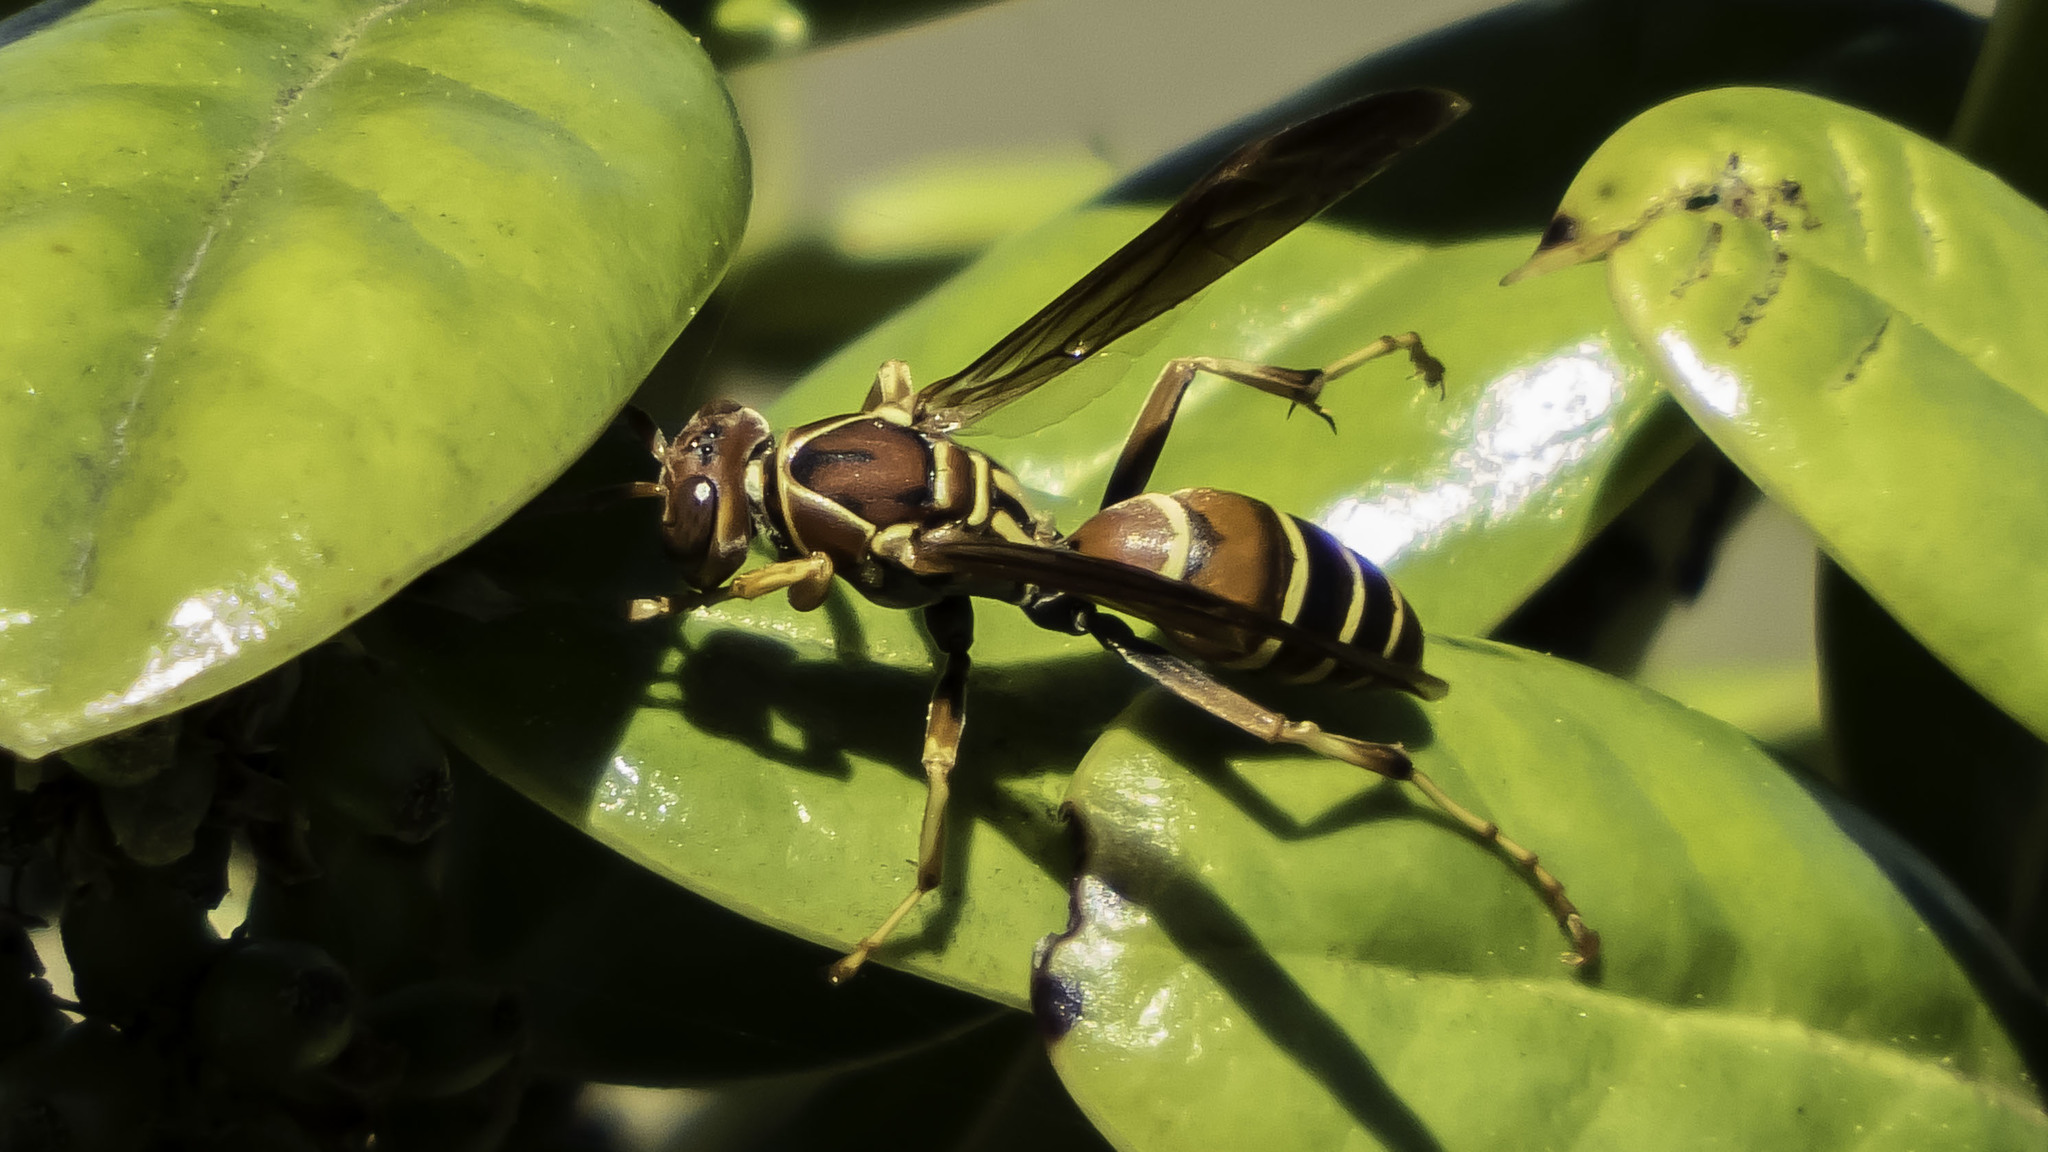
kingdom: Animalia
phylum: Arthropoda
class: Insecta
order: Hymenoptera
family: Eumenidae
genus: Polistes
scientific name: Polistes dorsalis
